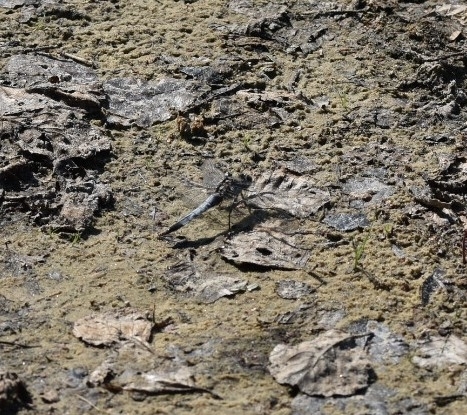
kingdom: Animalia
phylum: Arthropoda
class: Insecta
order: Odonata
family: Libellulidae
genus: Orthetrum
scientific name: Orthetrum cancellatum
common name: Black-tailed skimmer
